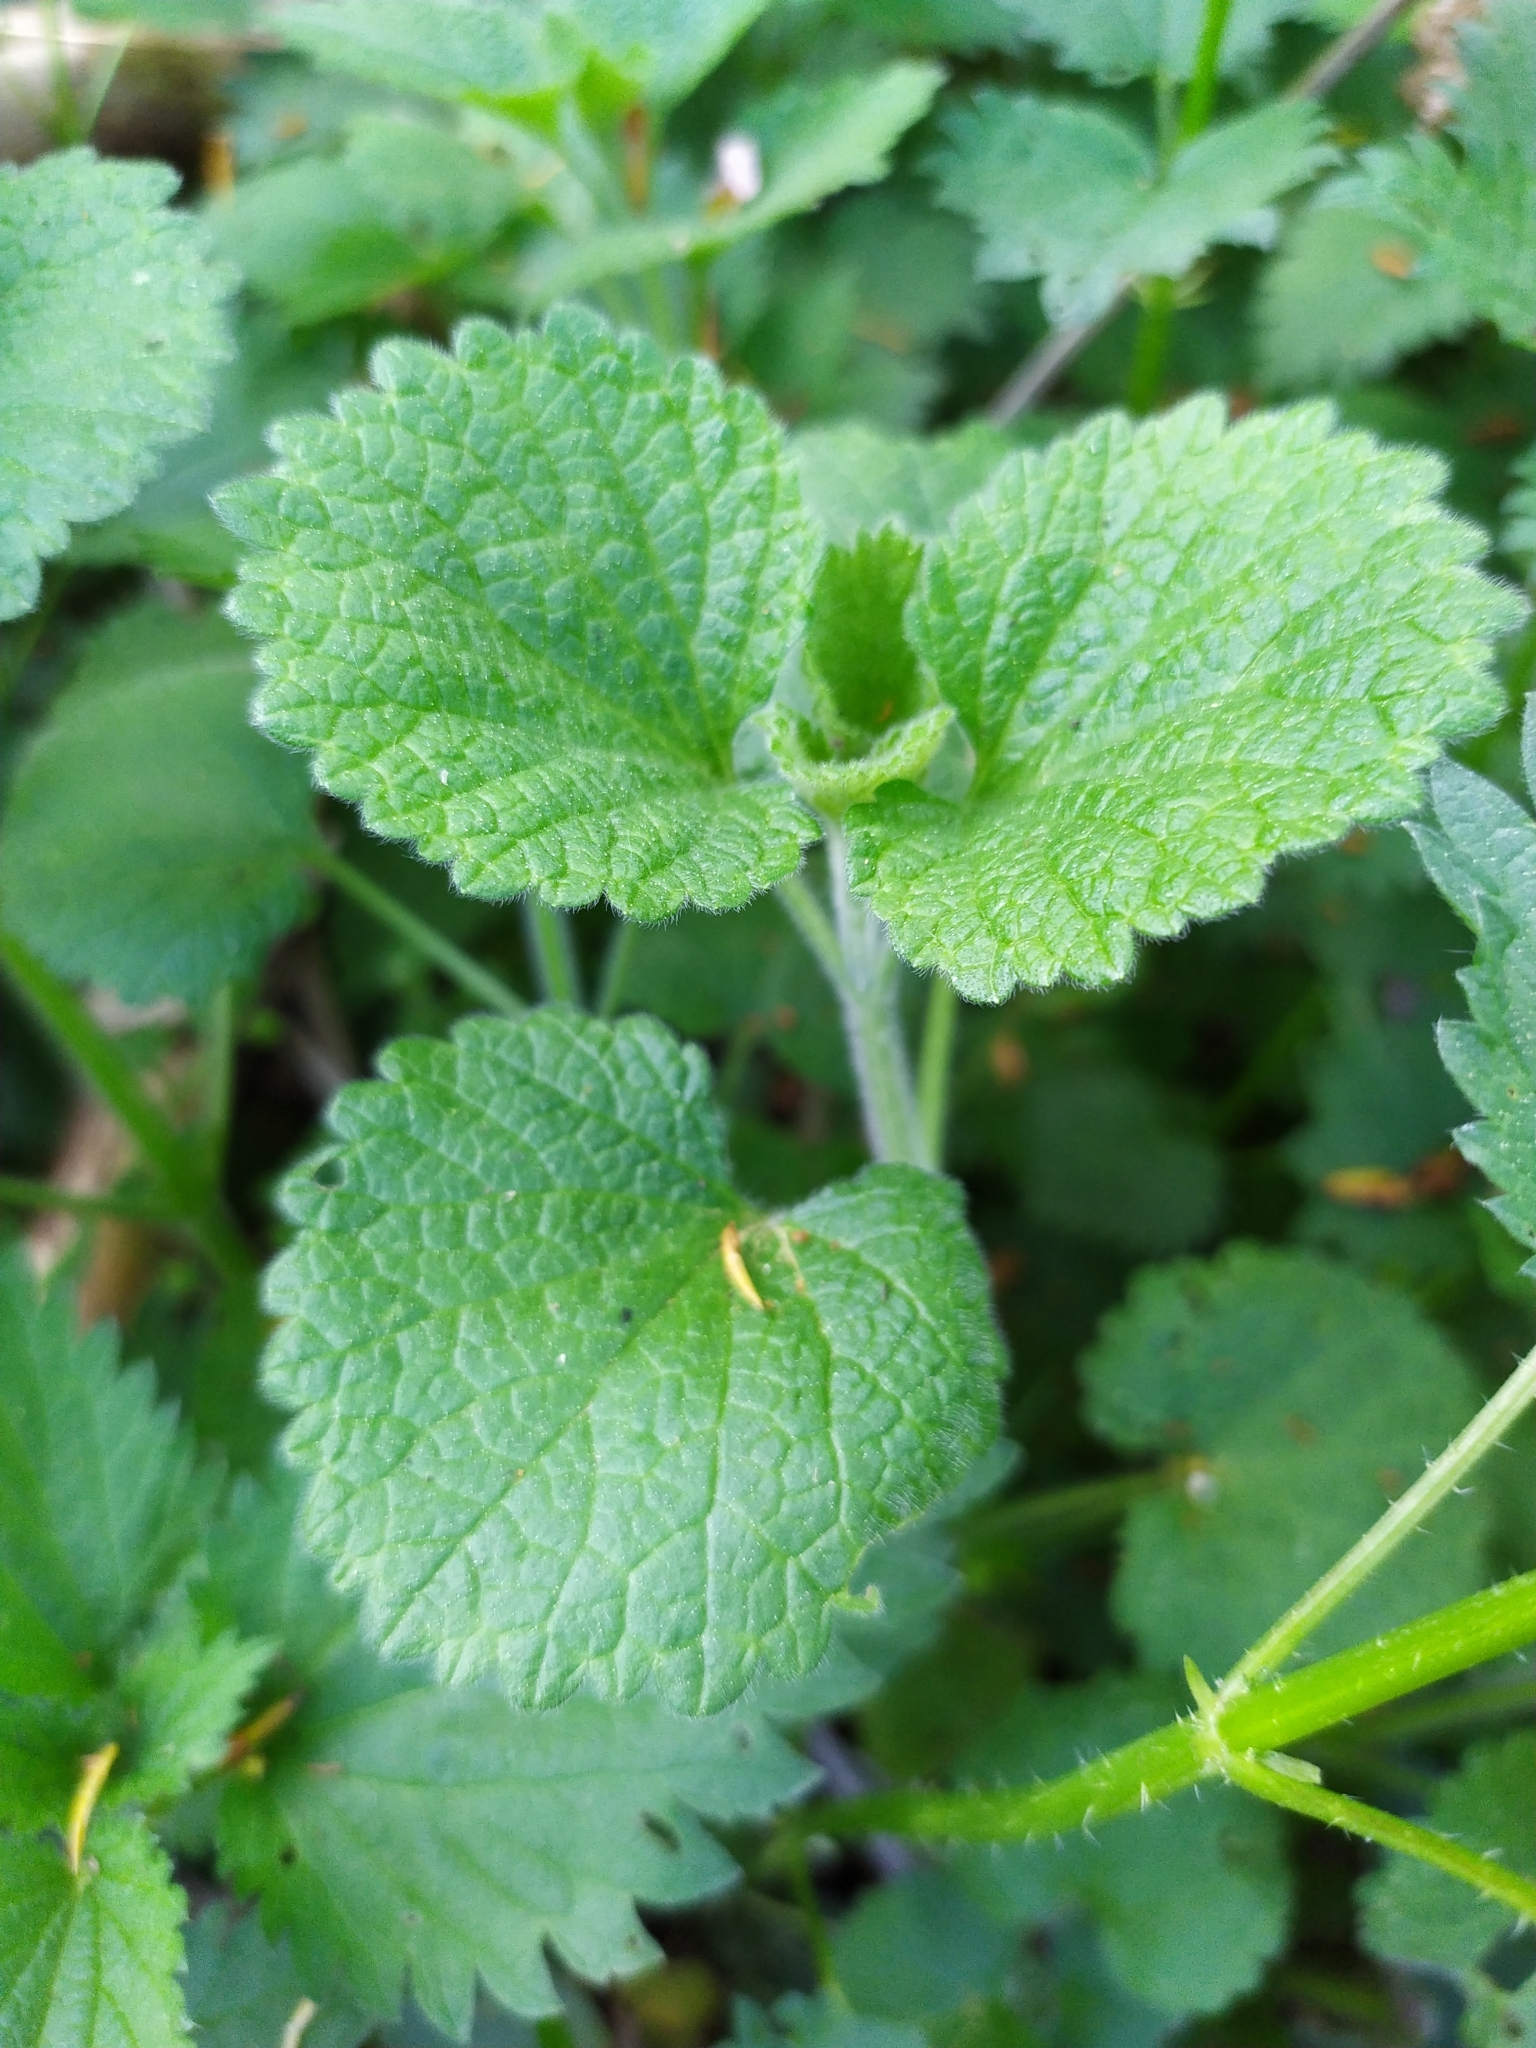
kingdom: Plantae
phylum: Tracheophyta
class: Magnoliopsida
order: Lamiales
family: Lamiaceae
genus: Ballota
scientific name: Ballota nigra
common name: Black horehound
